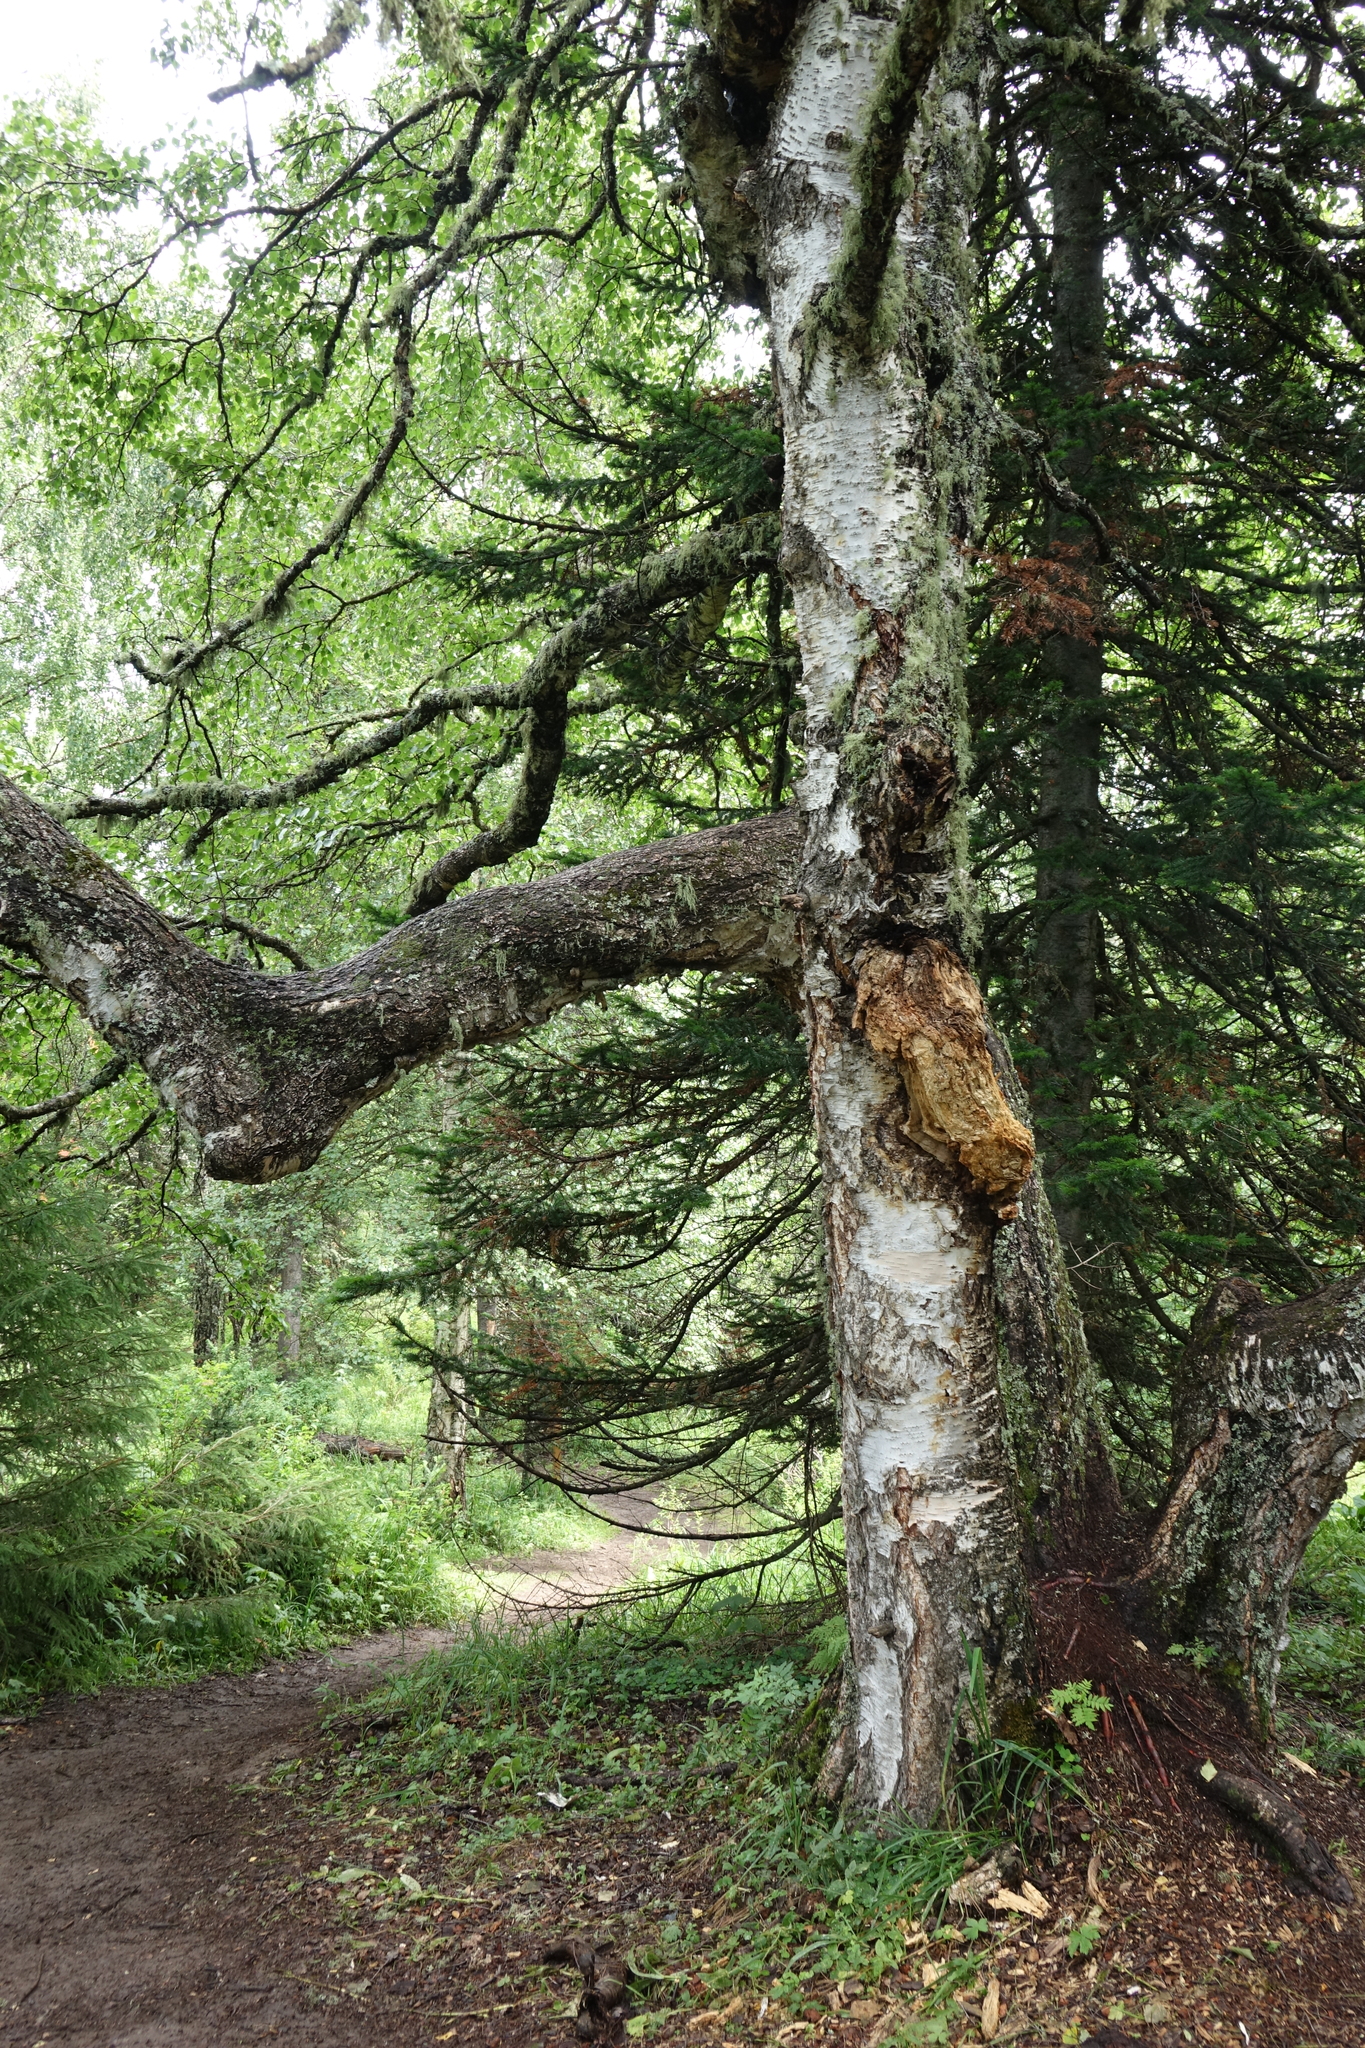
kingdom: Plantae
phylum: Tracheophyta
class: Magnoliopsida
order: Fagales
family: Betulaceae
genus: Betula
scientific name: Betula pendula
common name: Silver birch
